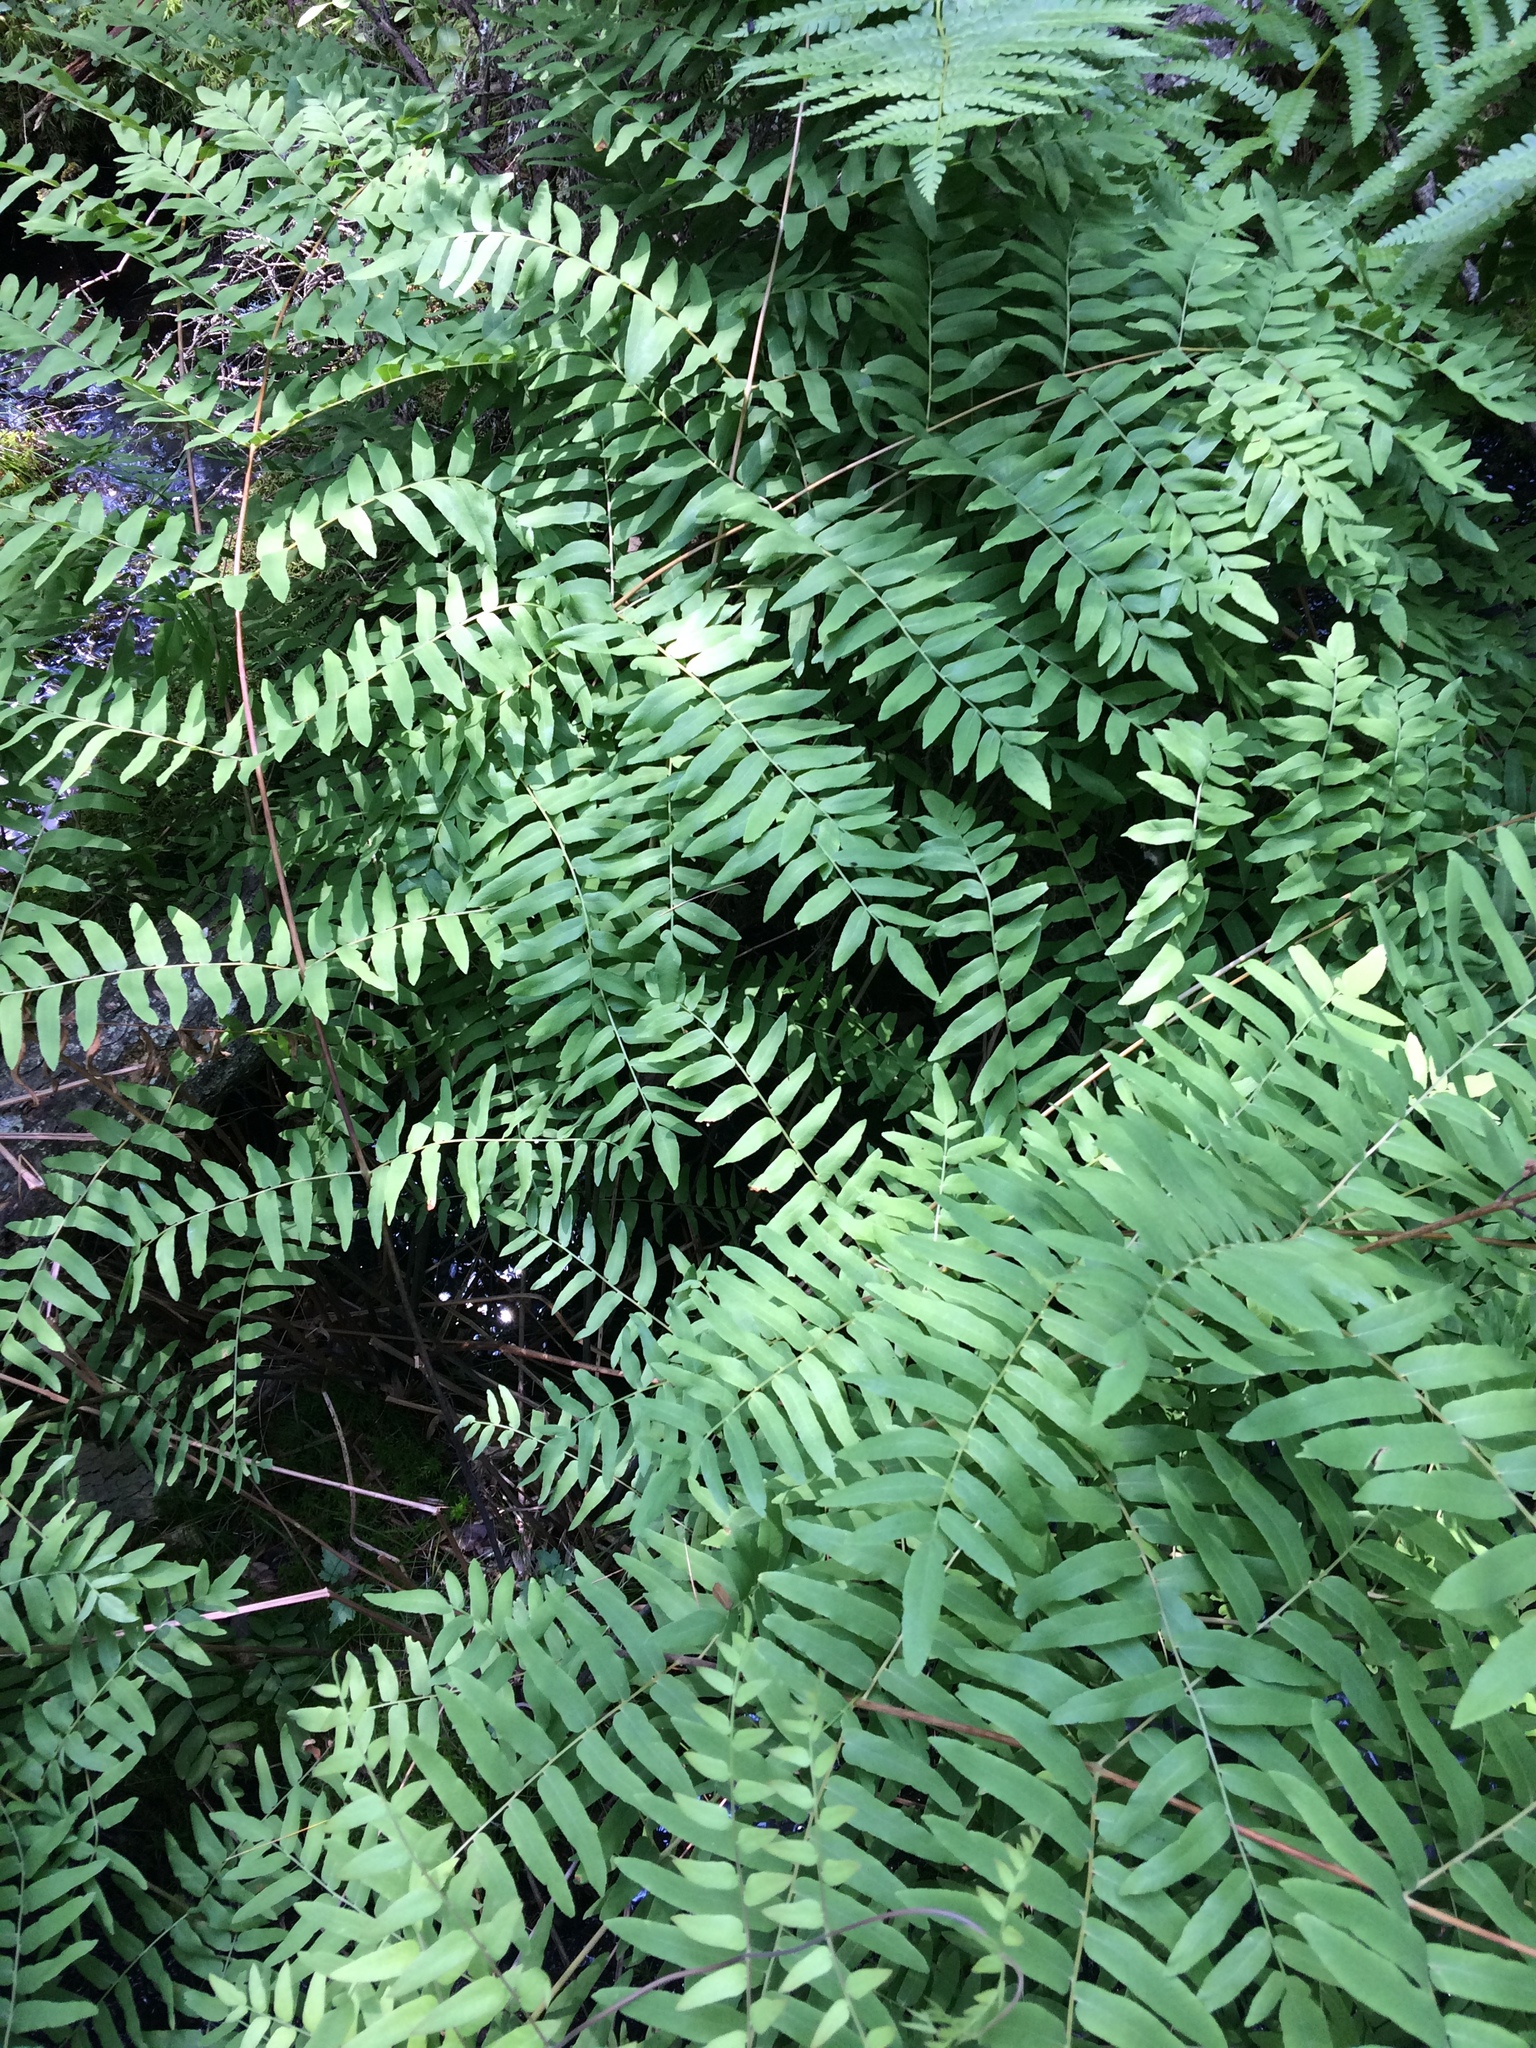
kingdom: Plantae
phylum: Tracheophyta
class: Polypodiopsida
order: Osmundales
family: Osmundaceae
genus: Osmunda
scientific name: Osmunda spectabilis
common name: American royal fern
